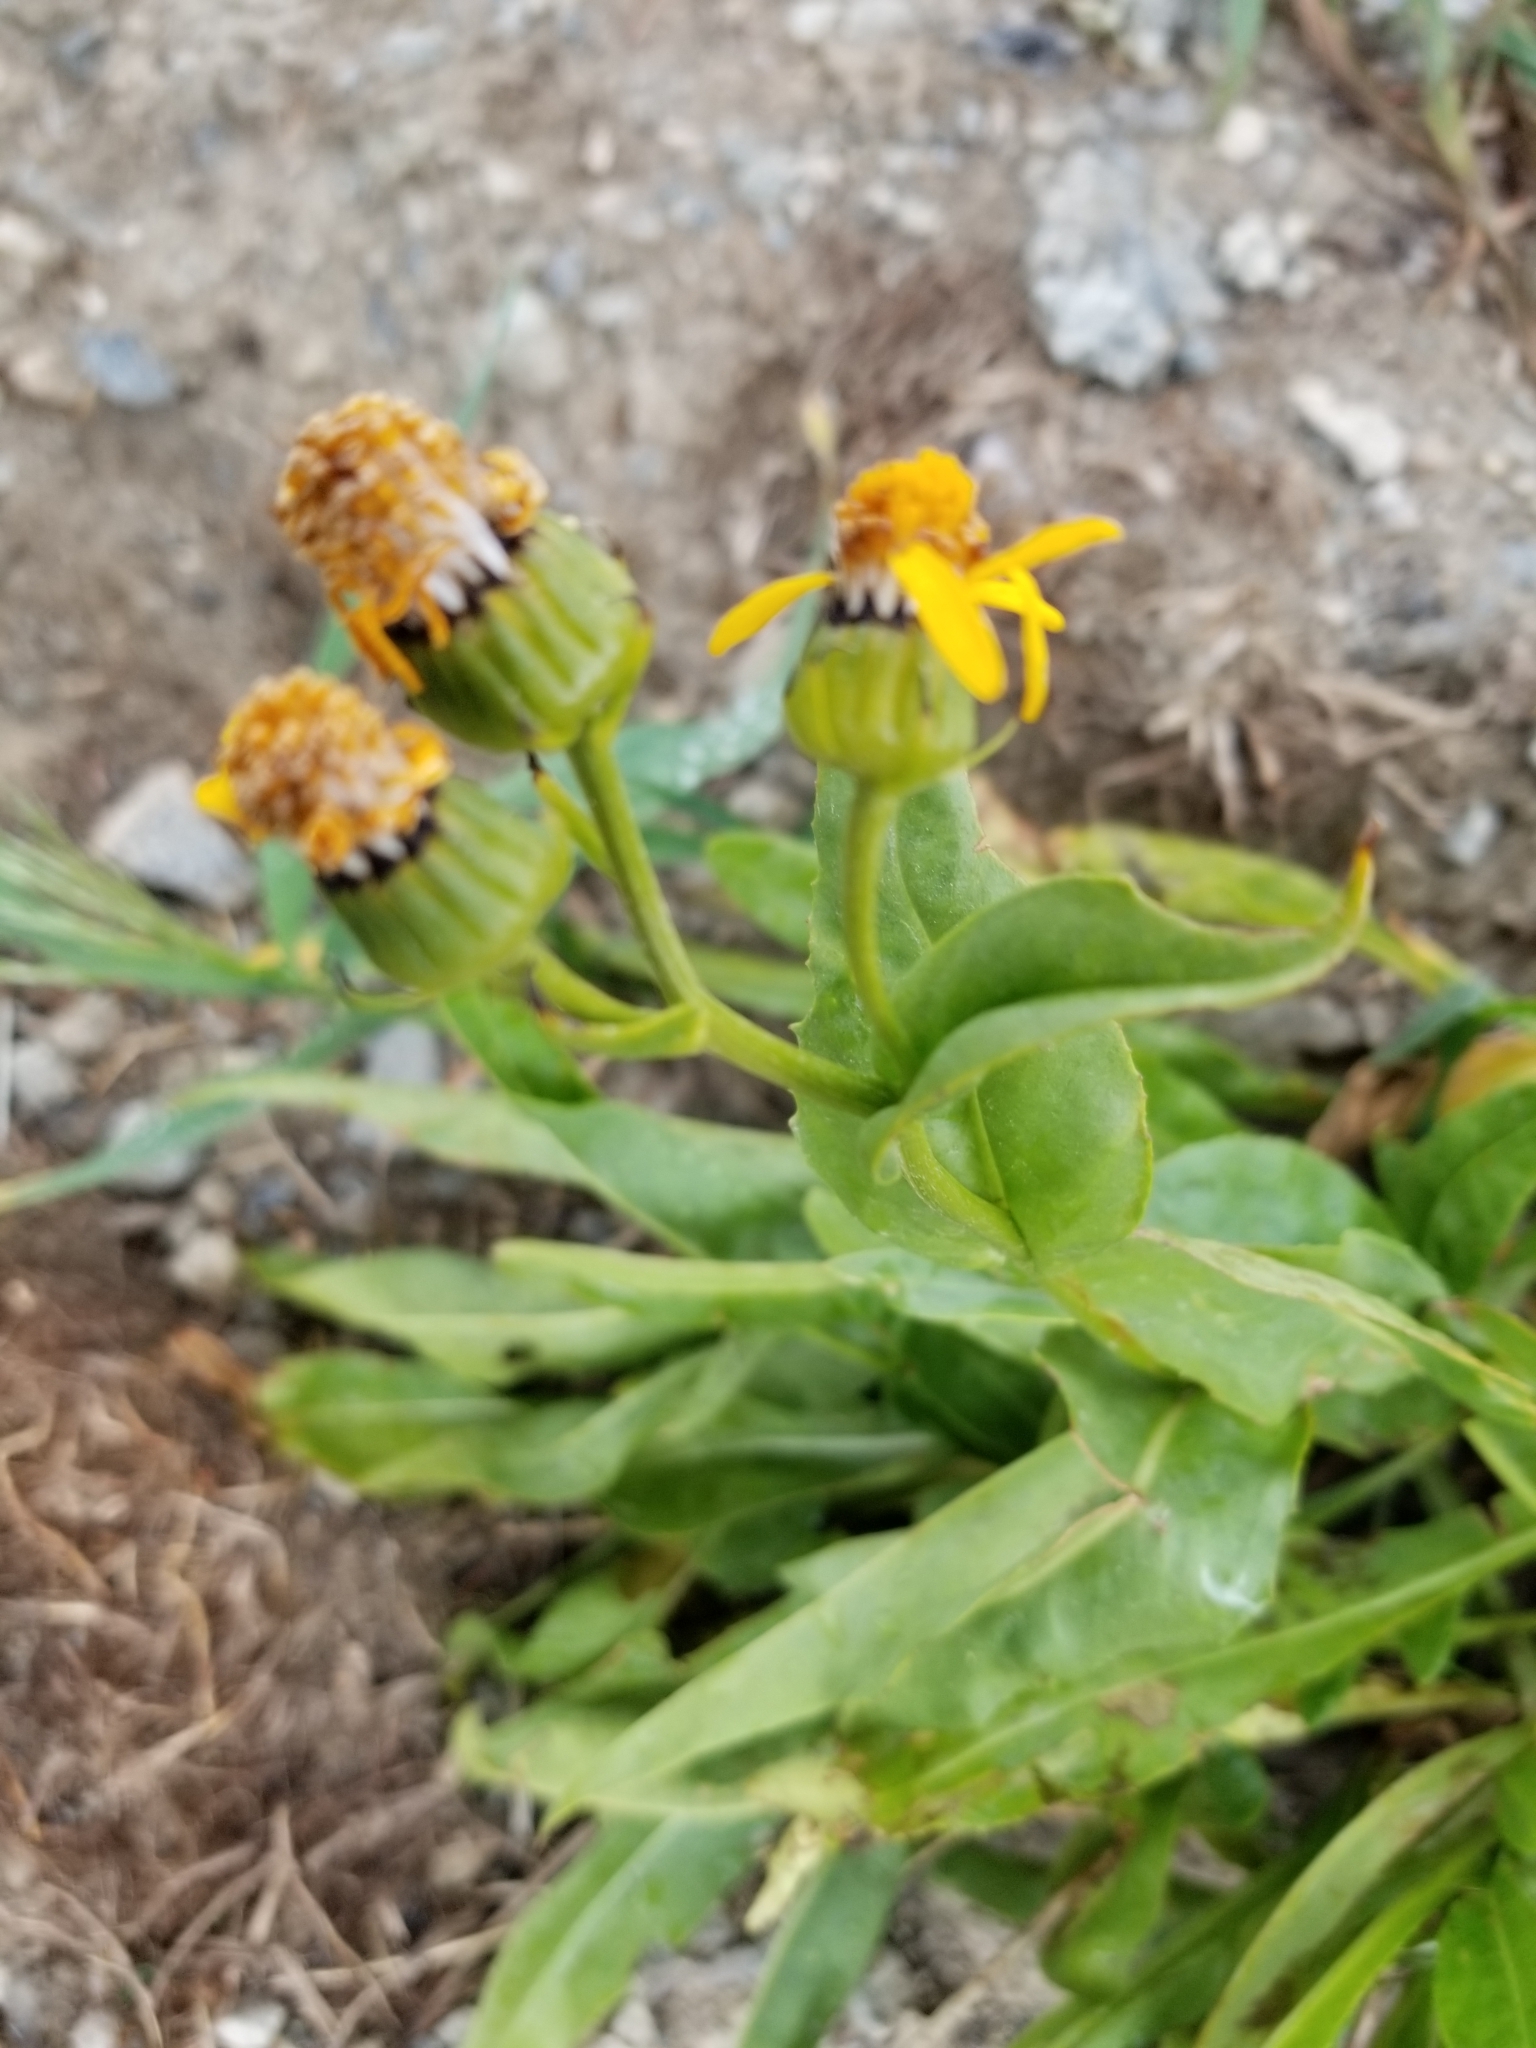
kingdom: Plantae
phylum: Tracheophyta
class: Magnoliopsida
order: Asterales
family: Asteraceae
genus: Senecio
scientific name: Senecio crassulus
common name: Mountain-meadow butterweed
